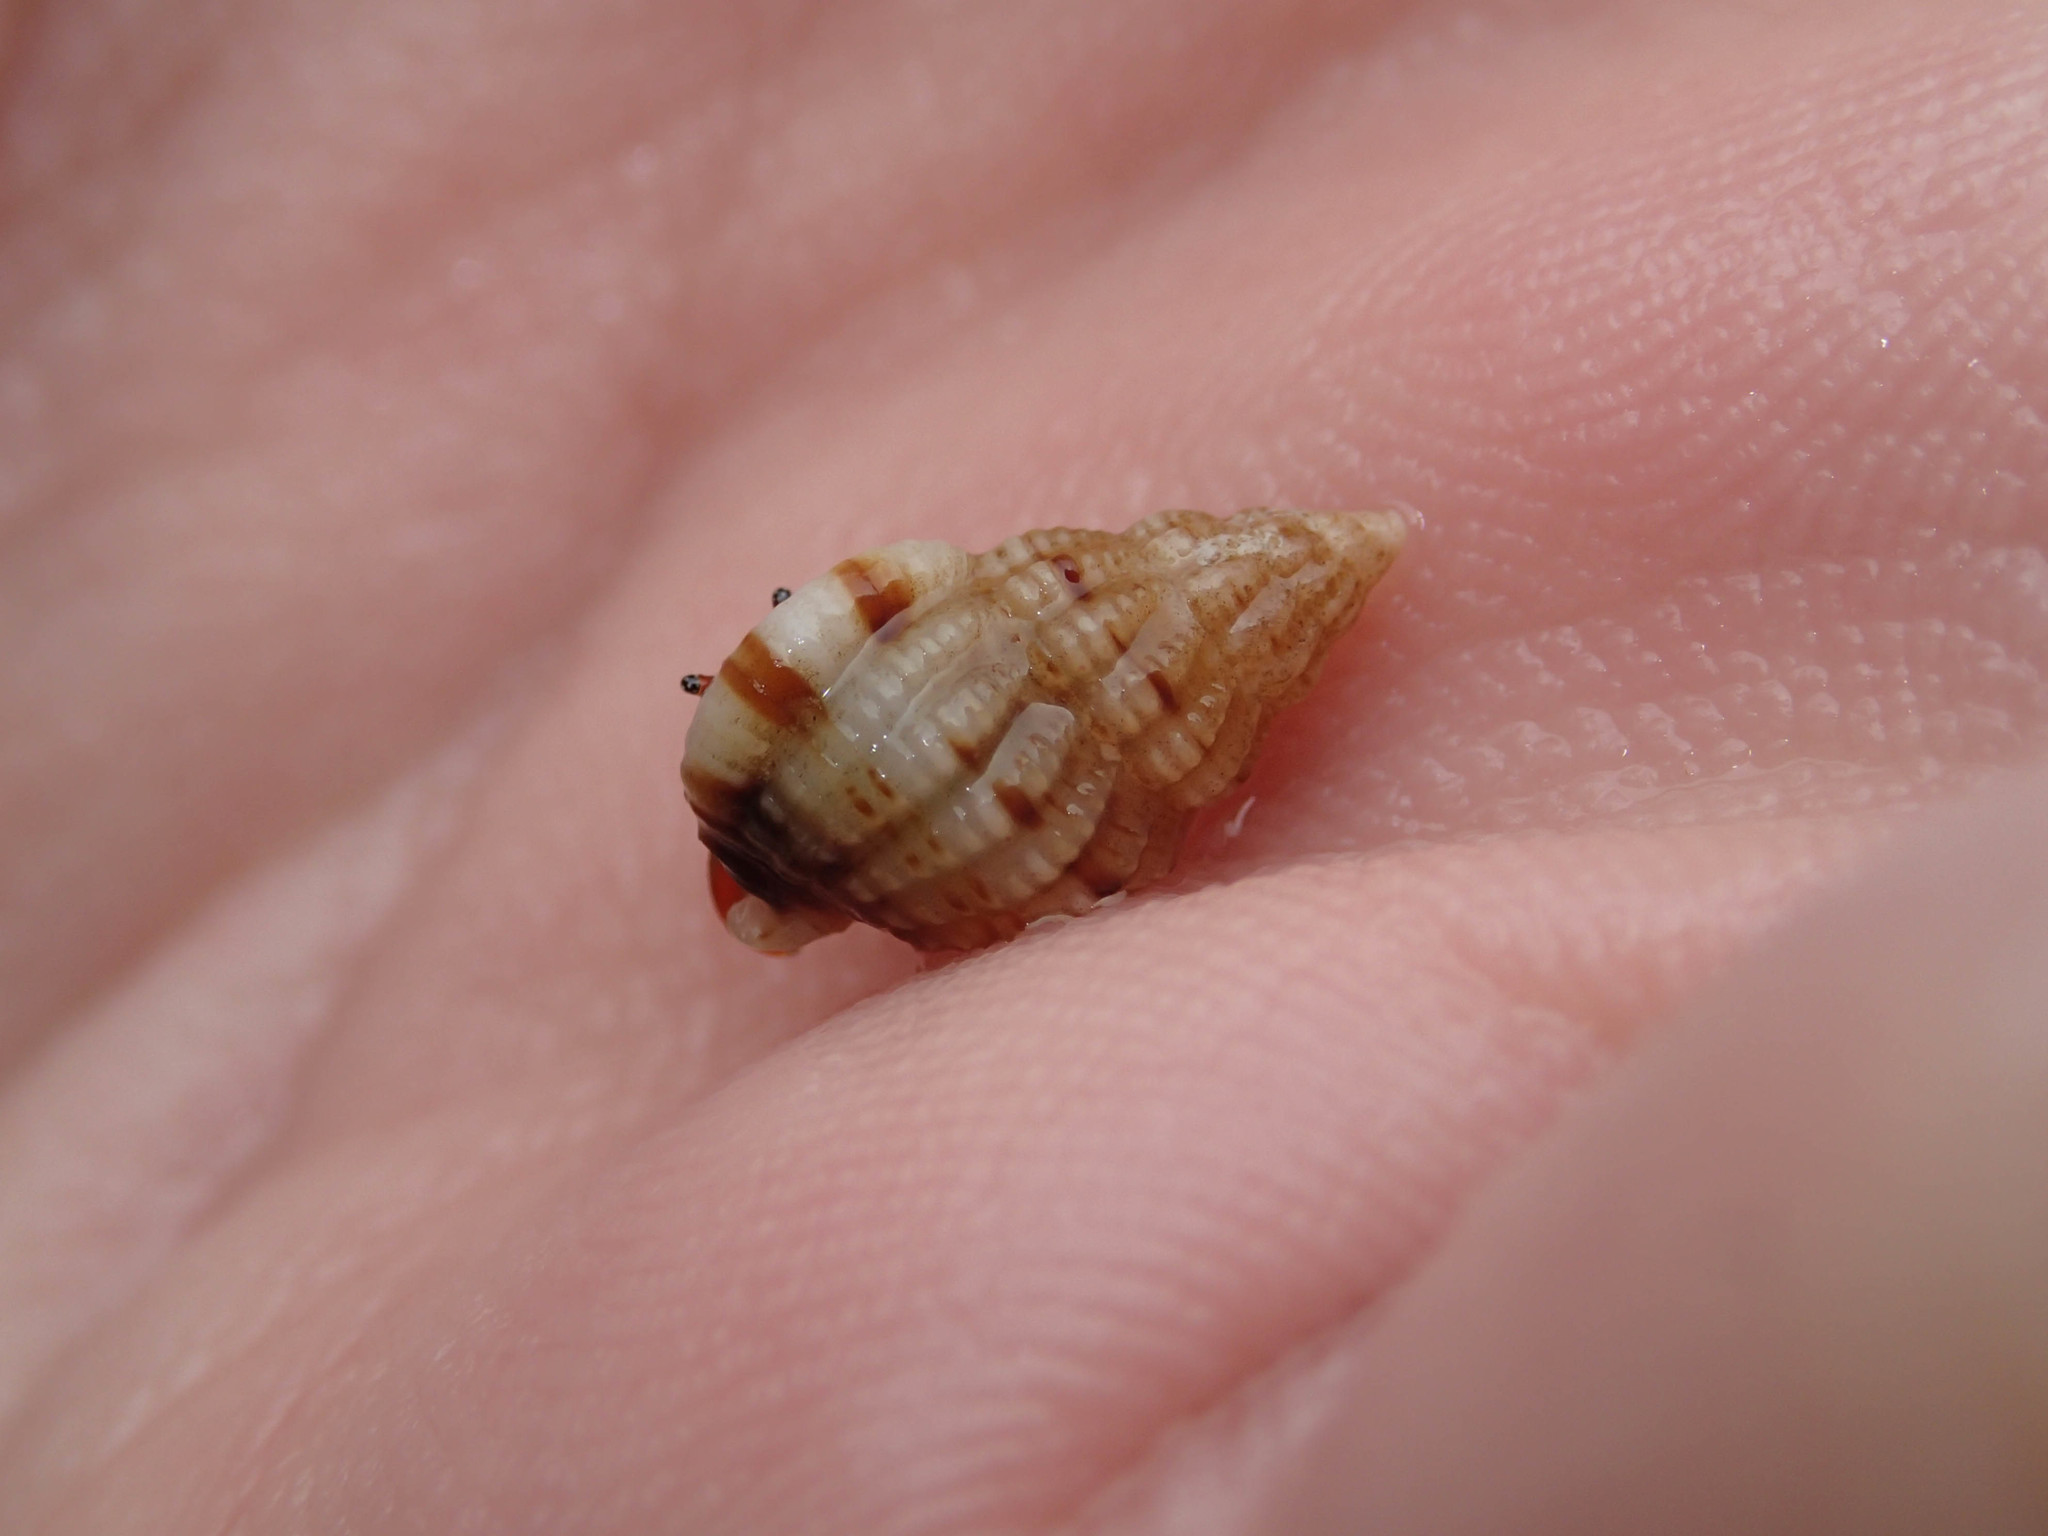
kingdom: Animalia
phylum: Mollusca
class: Gastropoda
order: Neogastropoda
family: Nassariidae
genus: Tritia
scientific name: Tritia incrassata
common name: Thick-lipped dog whelk
